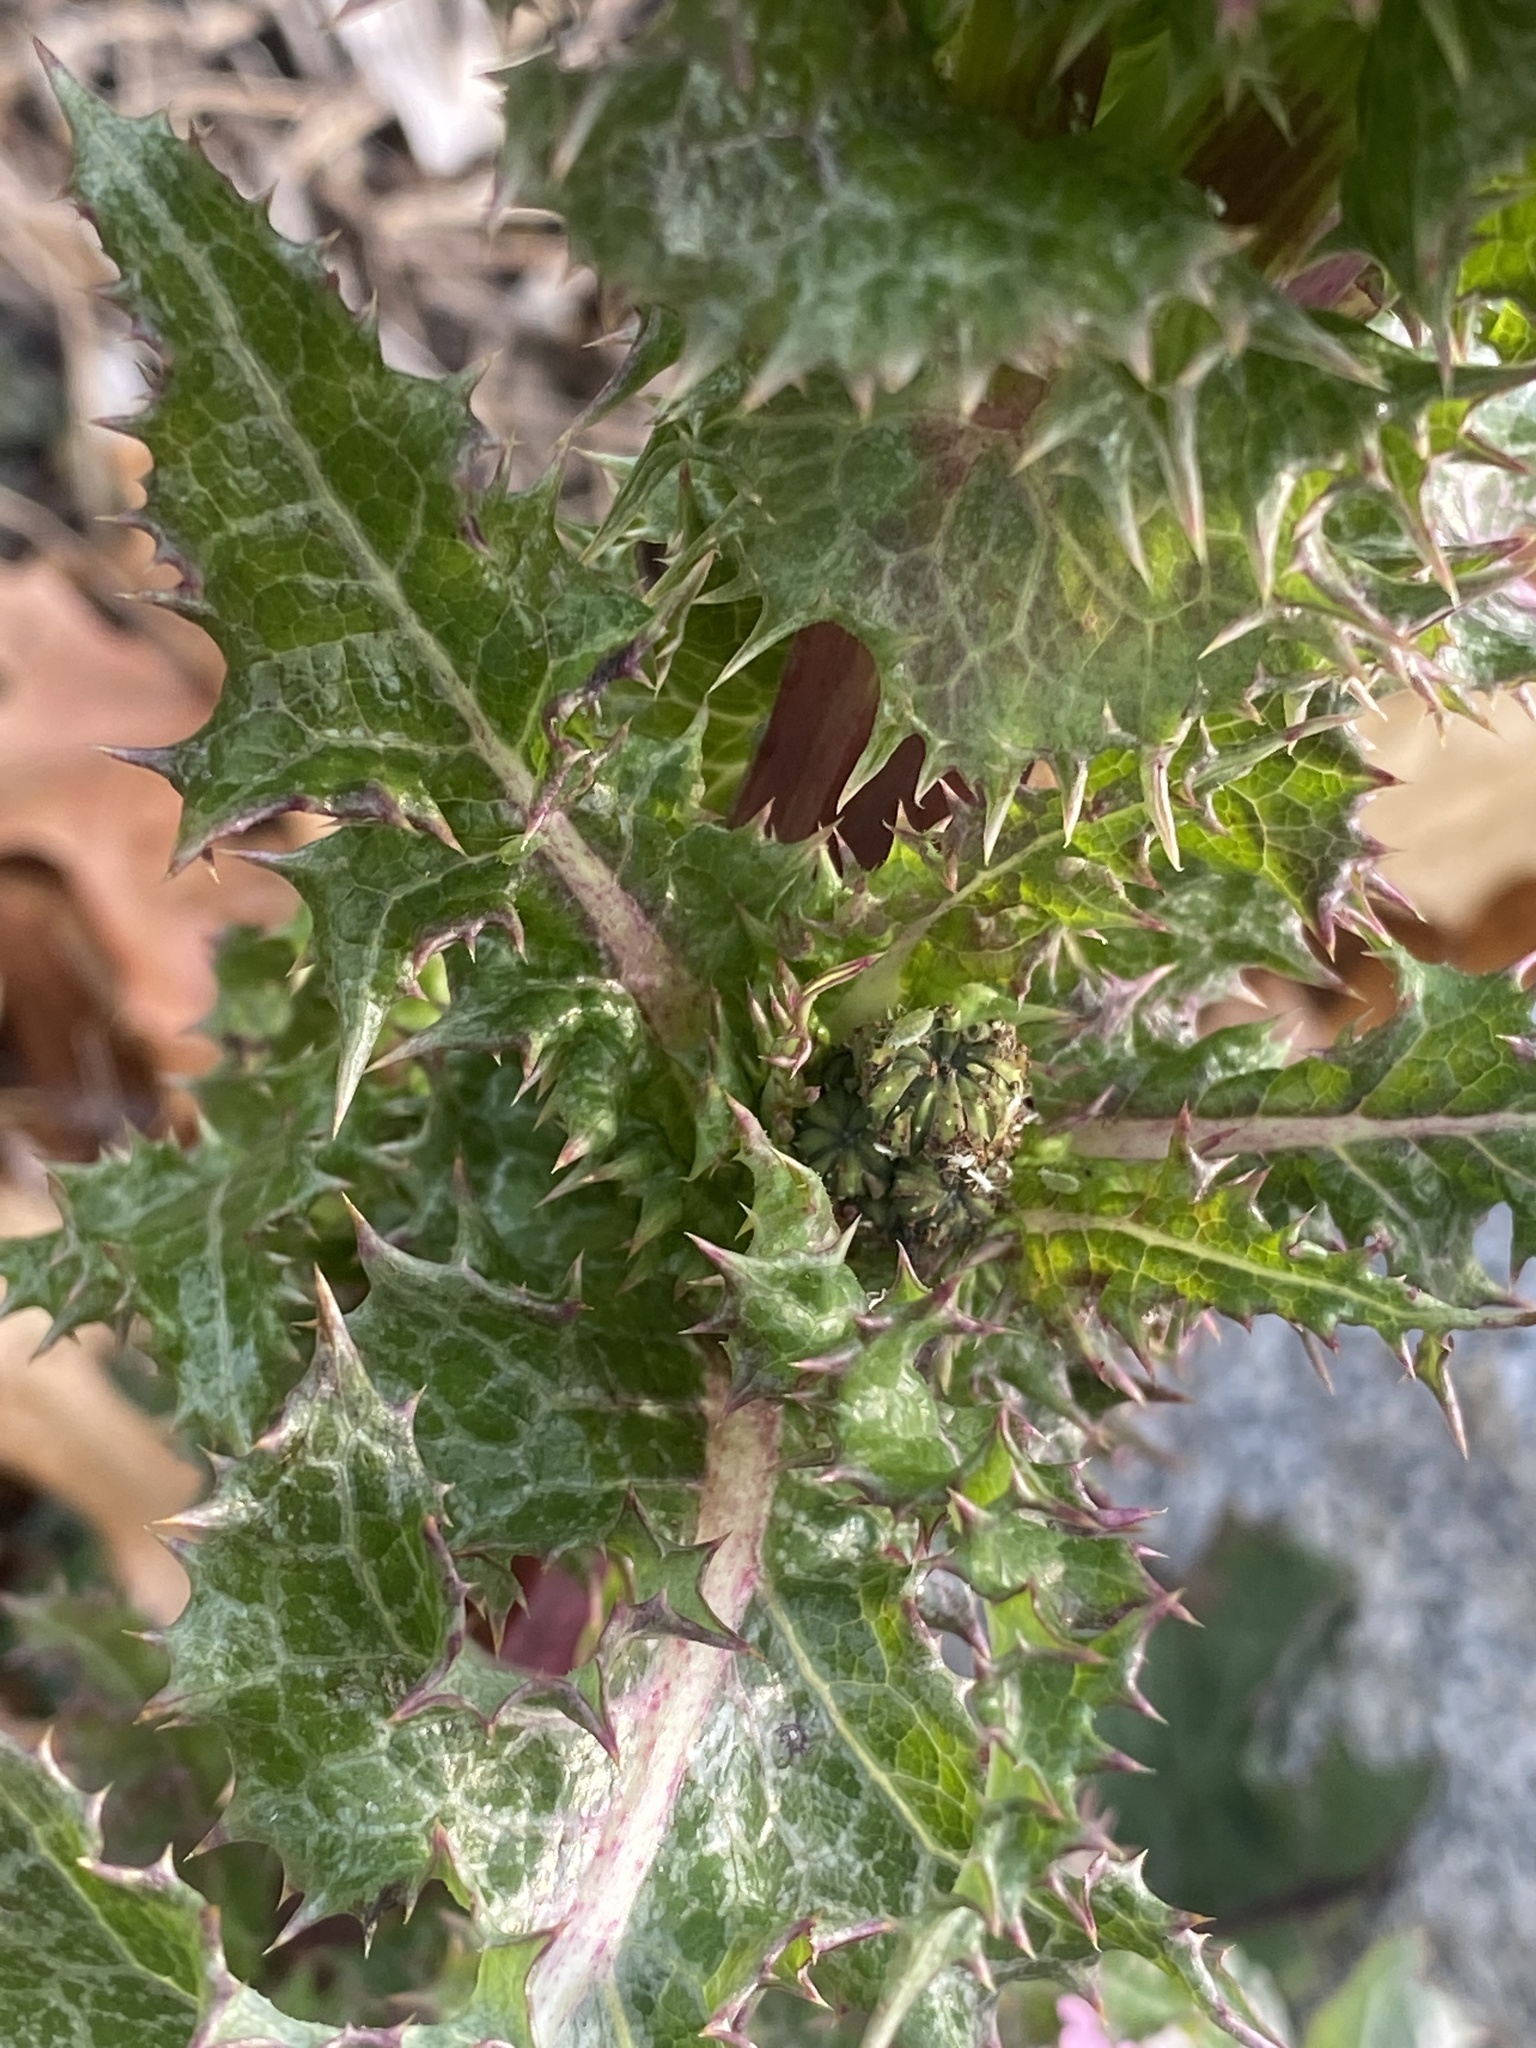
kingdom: Plantae
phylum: Tracheophyta
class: Magnoliopsida
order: Asterales
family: Asteraceae
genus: Sonchus
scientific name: Sonchus asper
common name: Prickly sow-thistle
